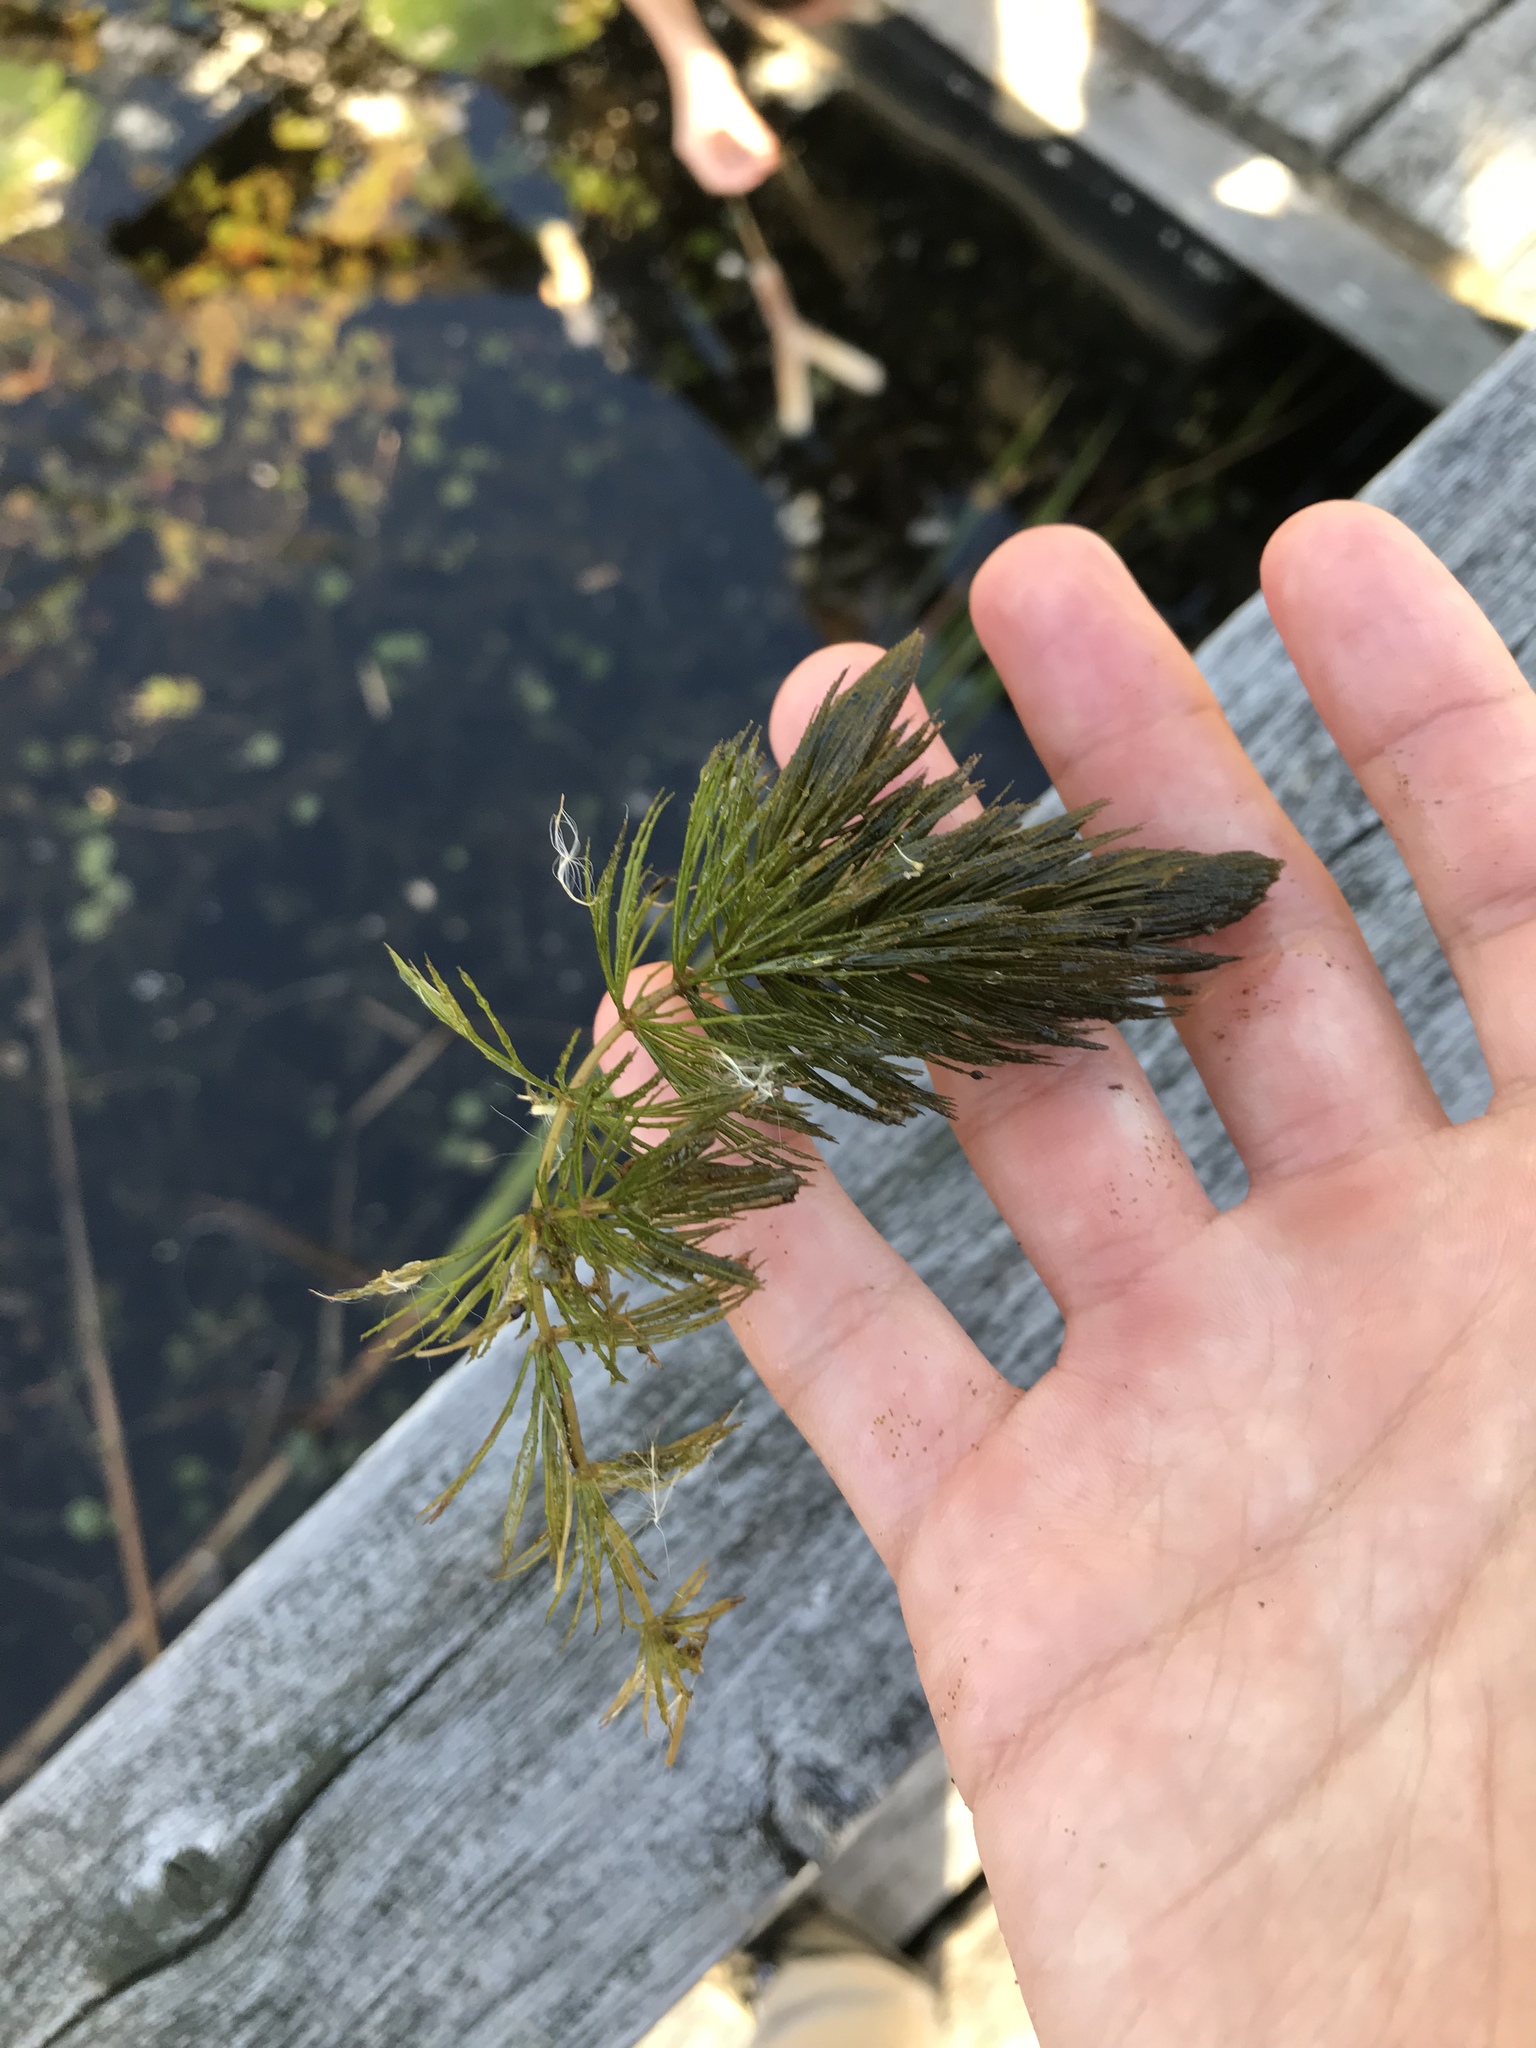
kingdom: Plantae
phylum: Tracheophyta
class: Magnoliopsida
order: Ceratophyllales
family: Ceratophyllaceae
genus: Ceratophyllum
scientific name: Ceratophyllum demersum
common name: Rigid hornwort
